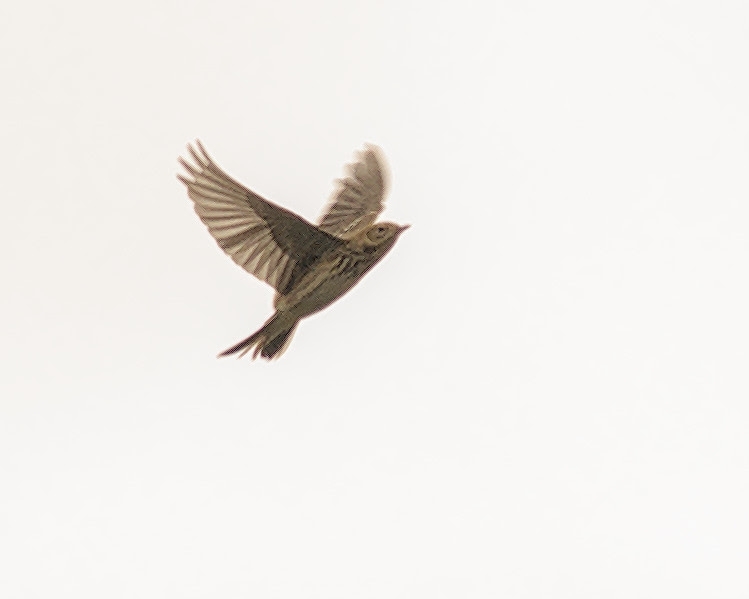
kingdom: Animalia
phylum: Chordata
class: Aves
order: Passeriformes
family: Motacillidae
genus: Anthus
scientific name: Anthus pratensis
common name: Meadow pipit
